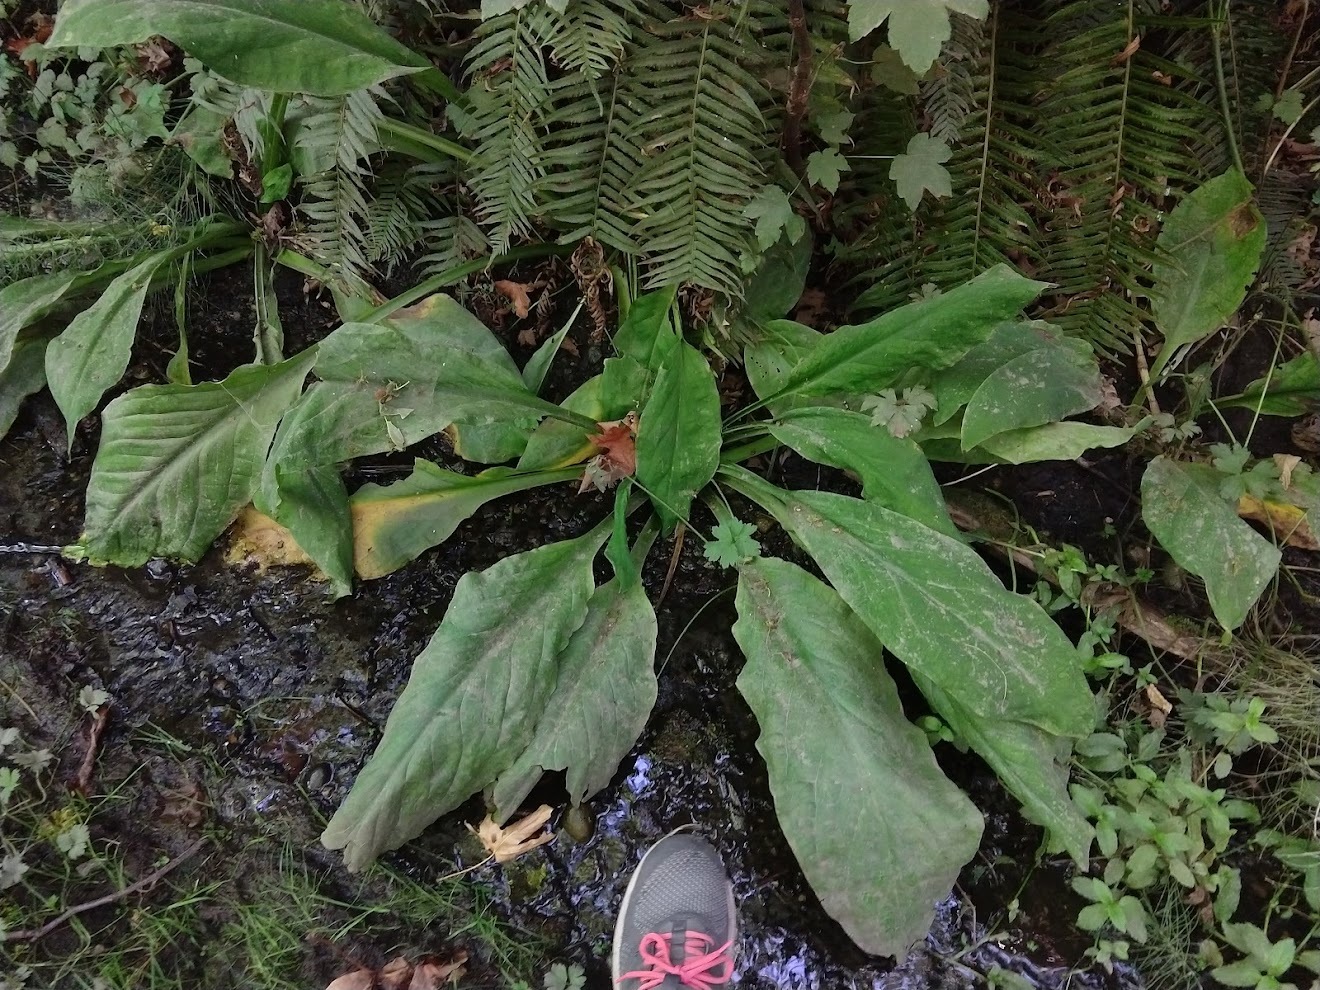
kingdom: Plantae
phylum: Tracheophyta
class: Liliopsida
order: Alismatales
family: Araceae
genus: Lysichiton
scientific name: Lysichiton americanus
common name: American skunk cabbage
